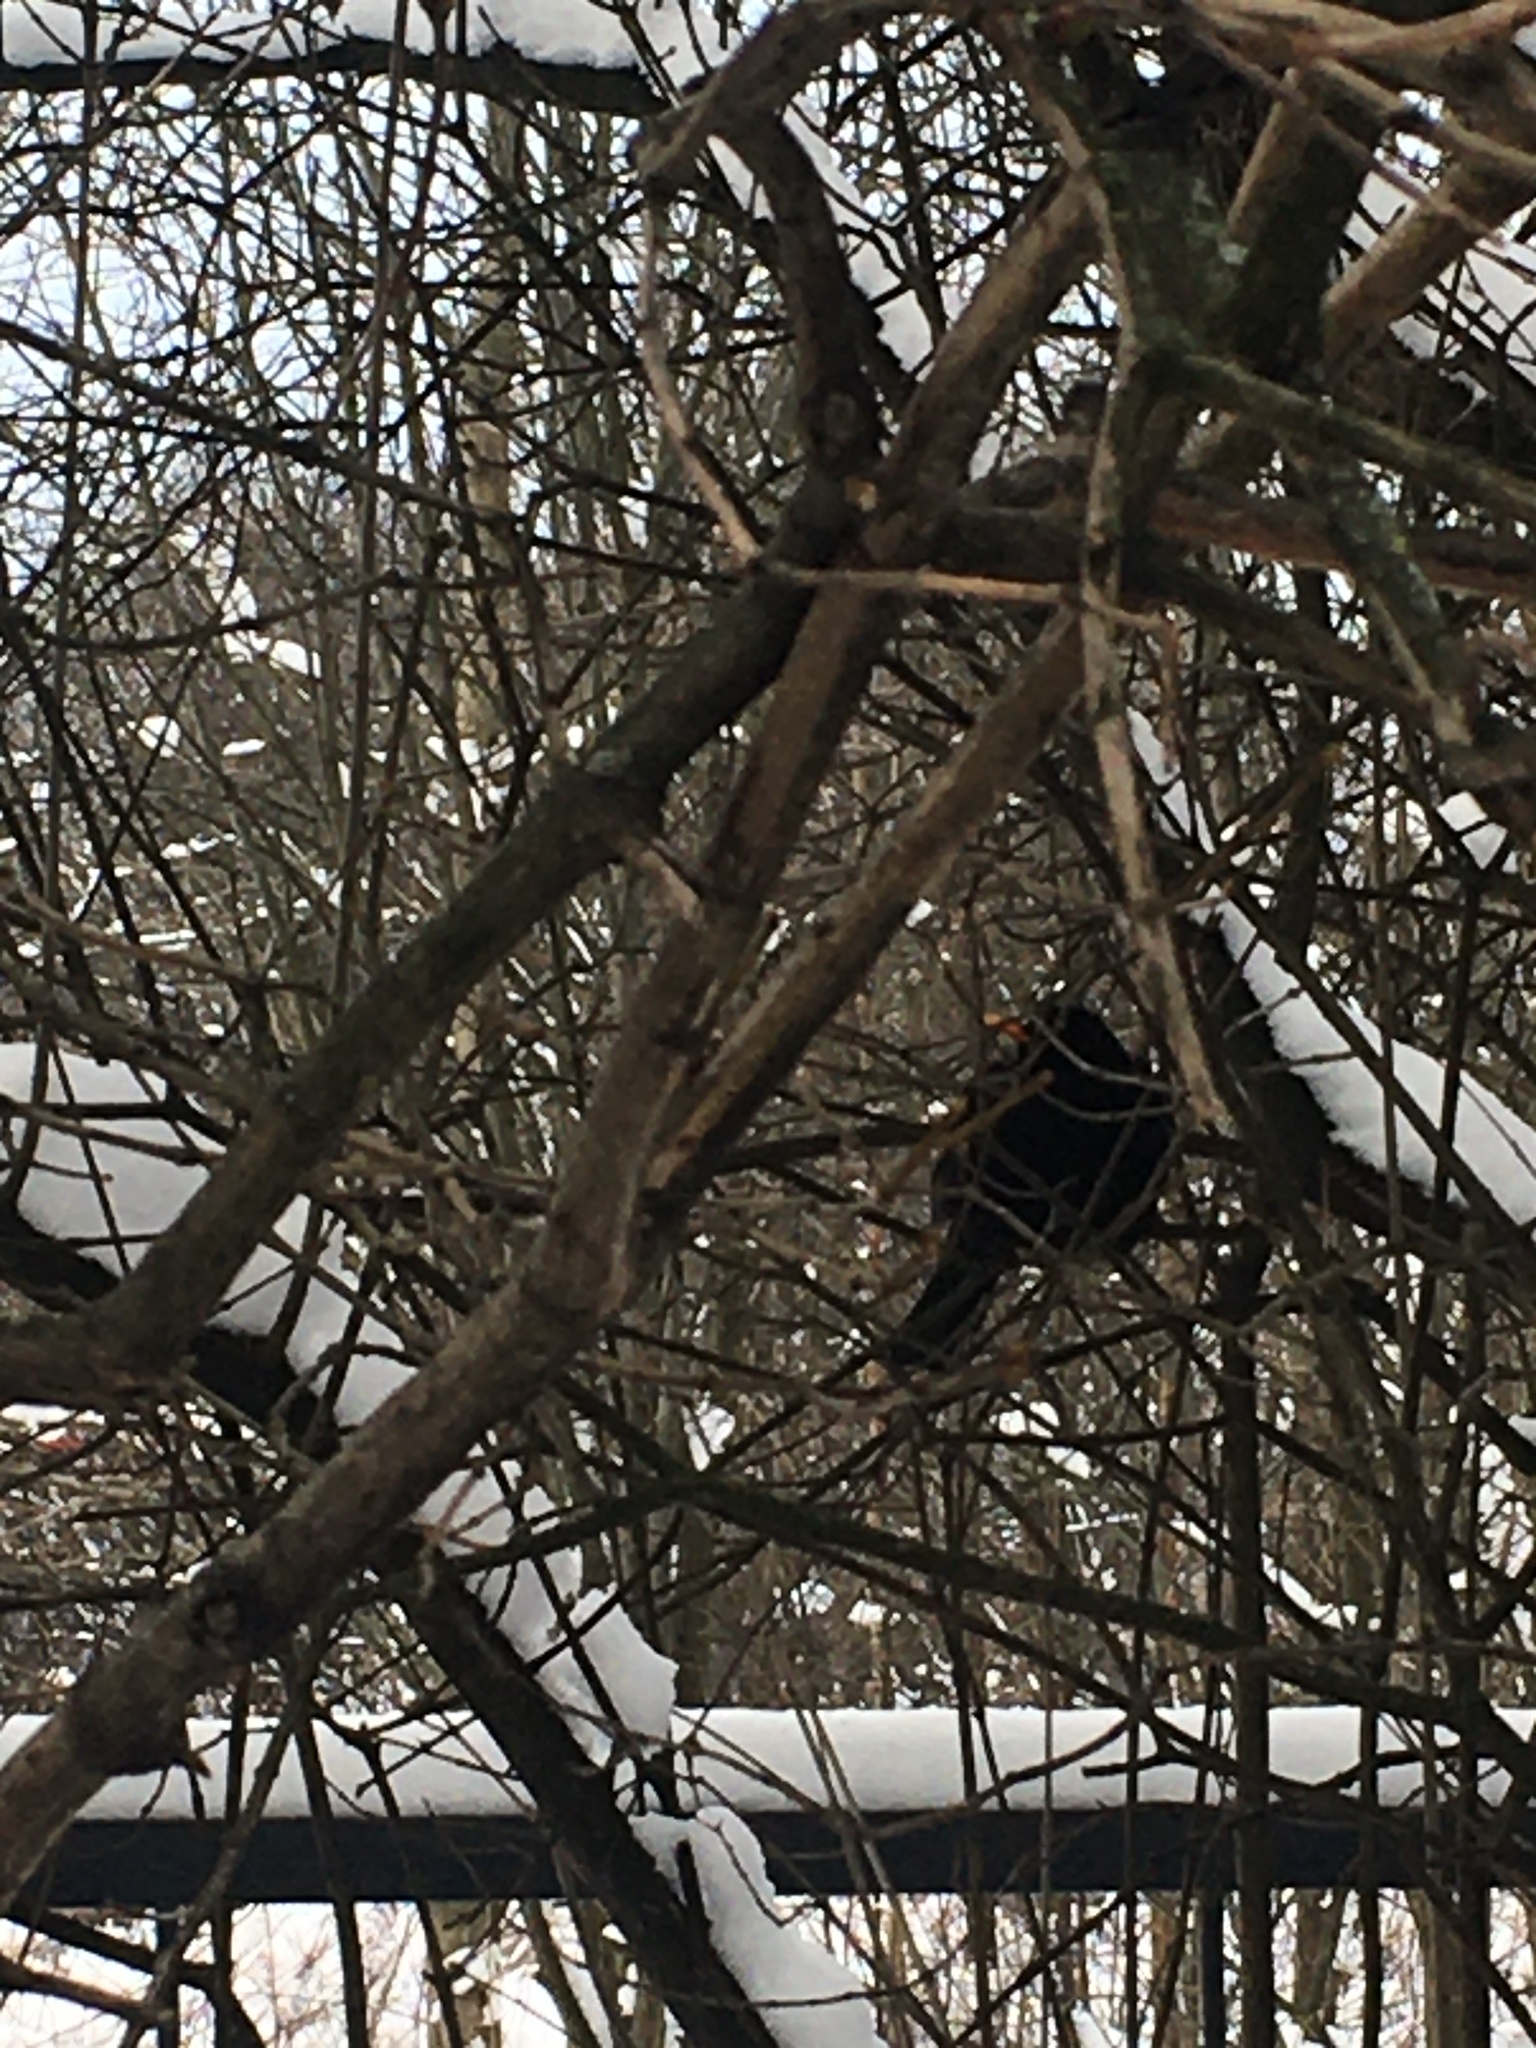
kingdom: Animalia
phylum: Chordata
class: Aves
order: Passeriformes
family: Turdidae
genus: Turdus
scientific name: Turdus merula
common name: Common blackbird
